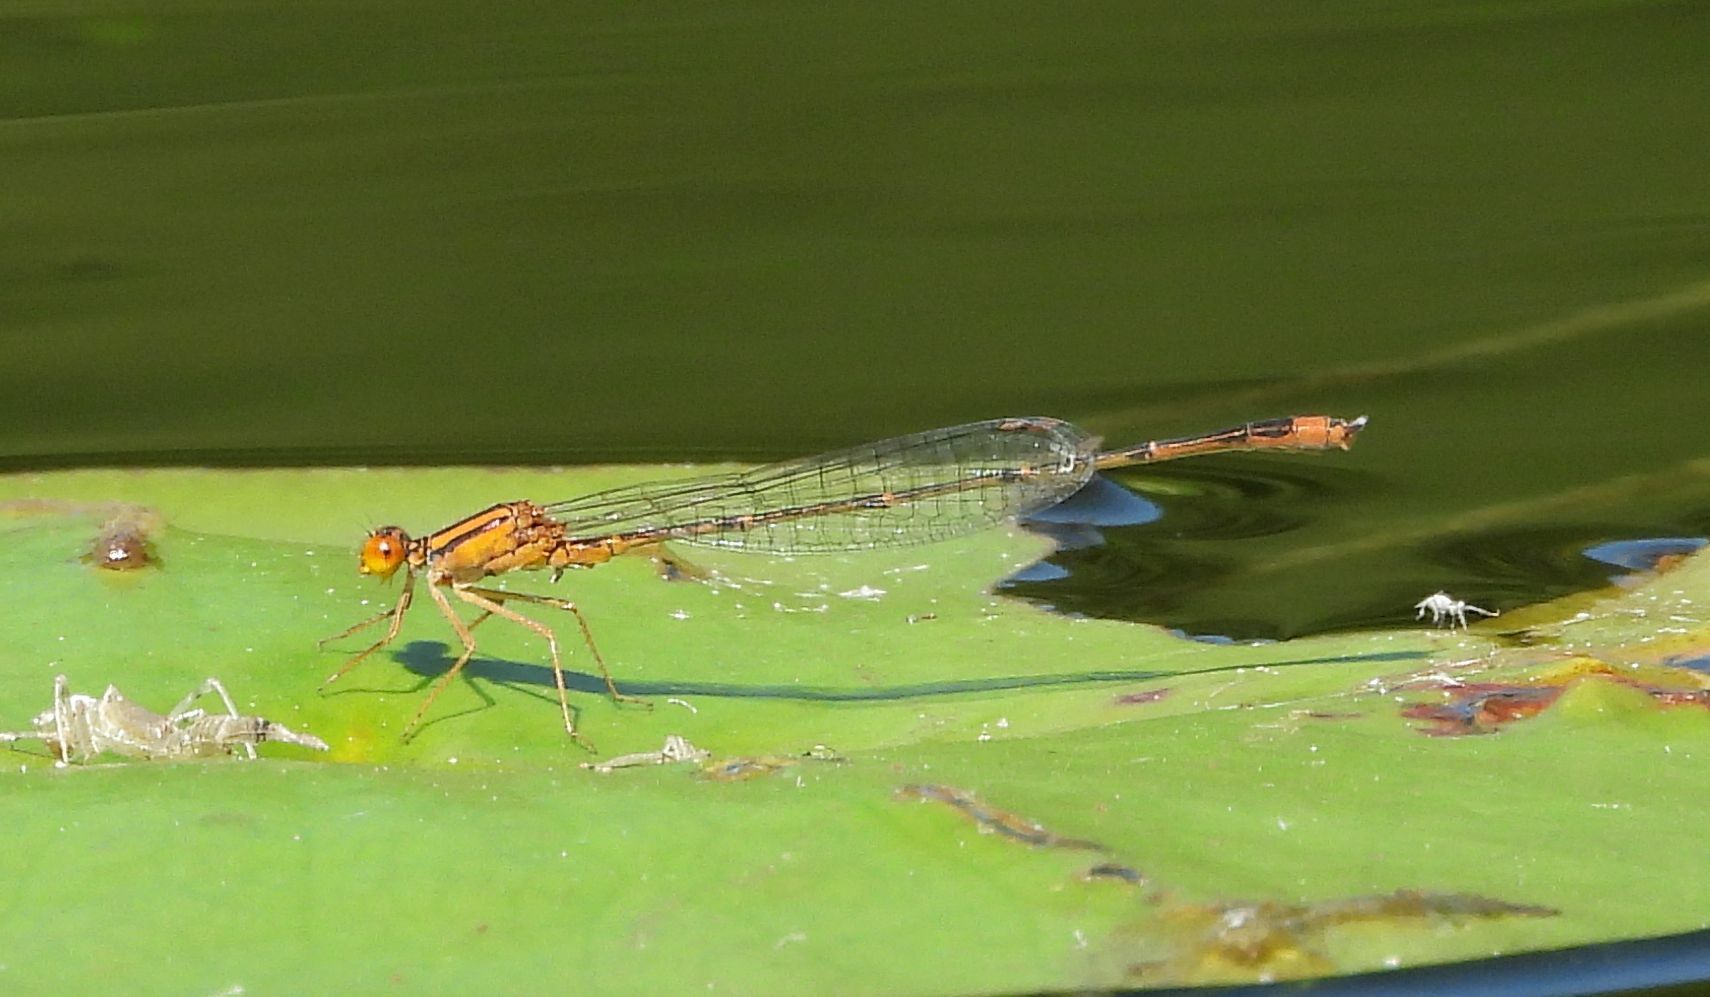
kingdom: Animalia
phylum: Arthropoda
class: Insecta
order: Odonata
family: Coenagrionidae
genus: Enallagma
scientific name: Enallagma signatum
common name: Orange bluet
